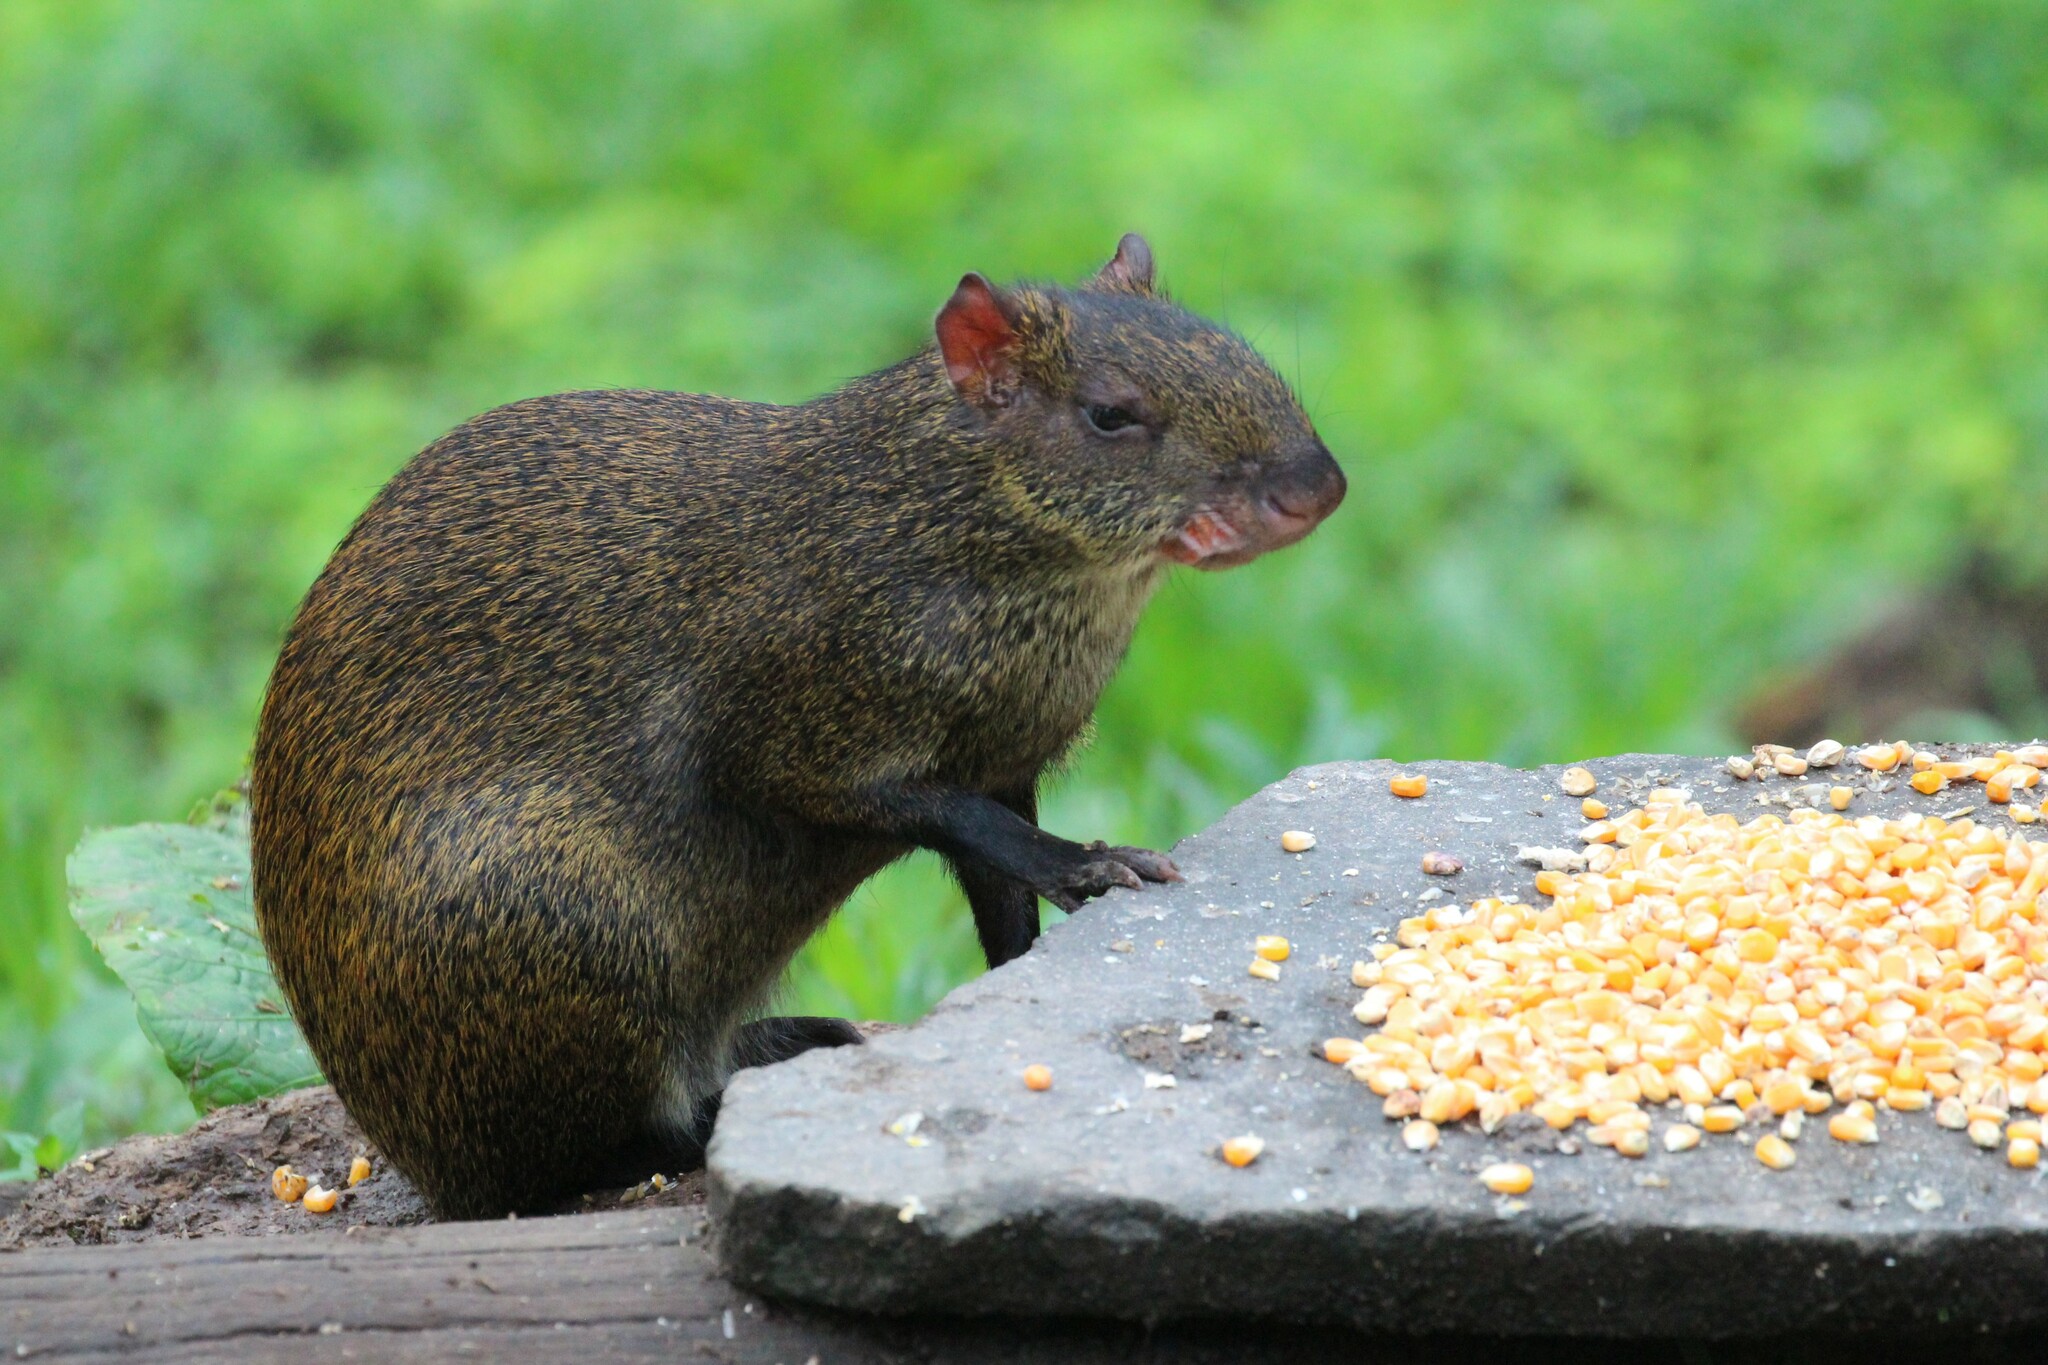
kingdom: Animalia
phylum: Chordata
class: Mammalia
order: Rodentia
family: Dasyproctidae
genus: Dasyprocta
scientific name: Dasyprocta punctata
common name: Central american agouti
